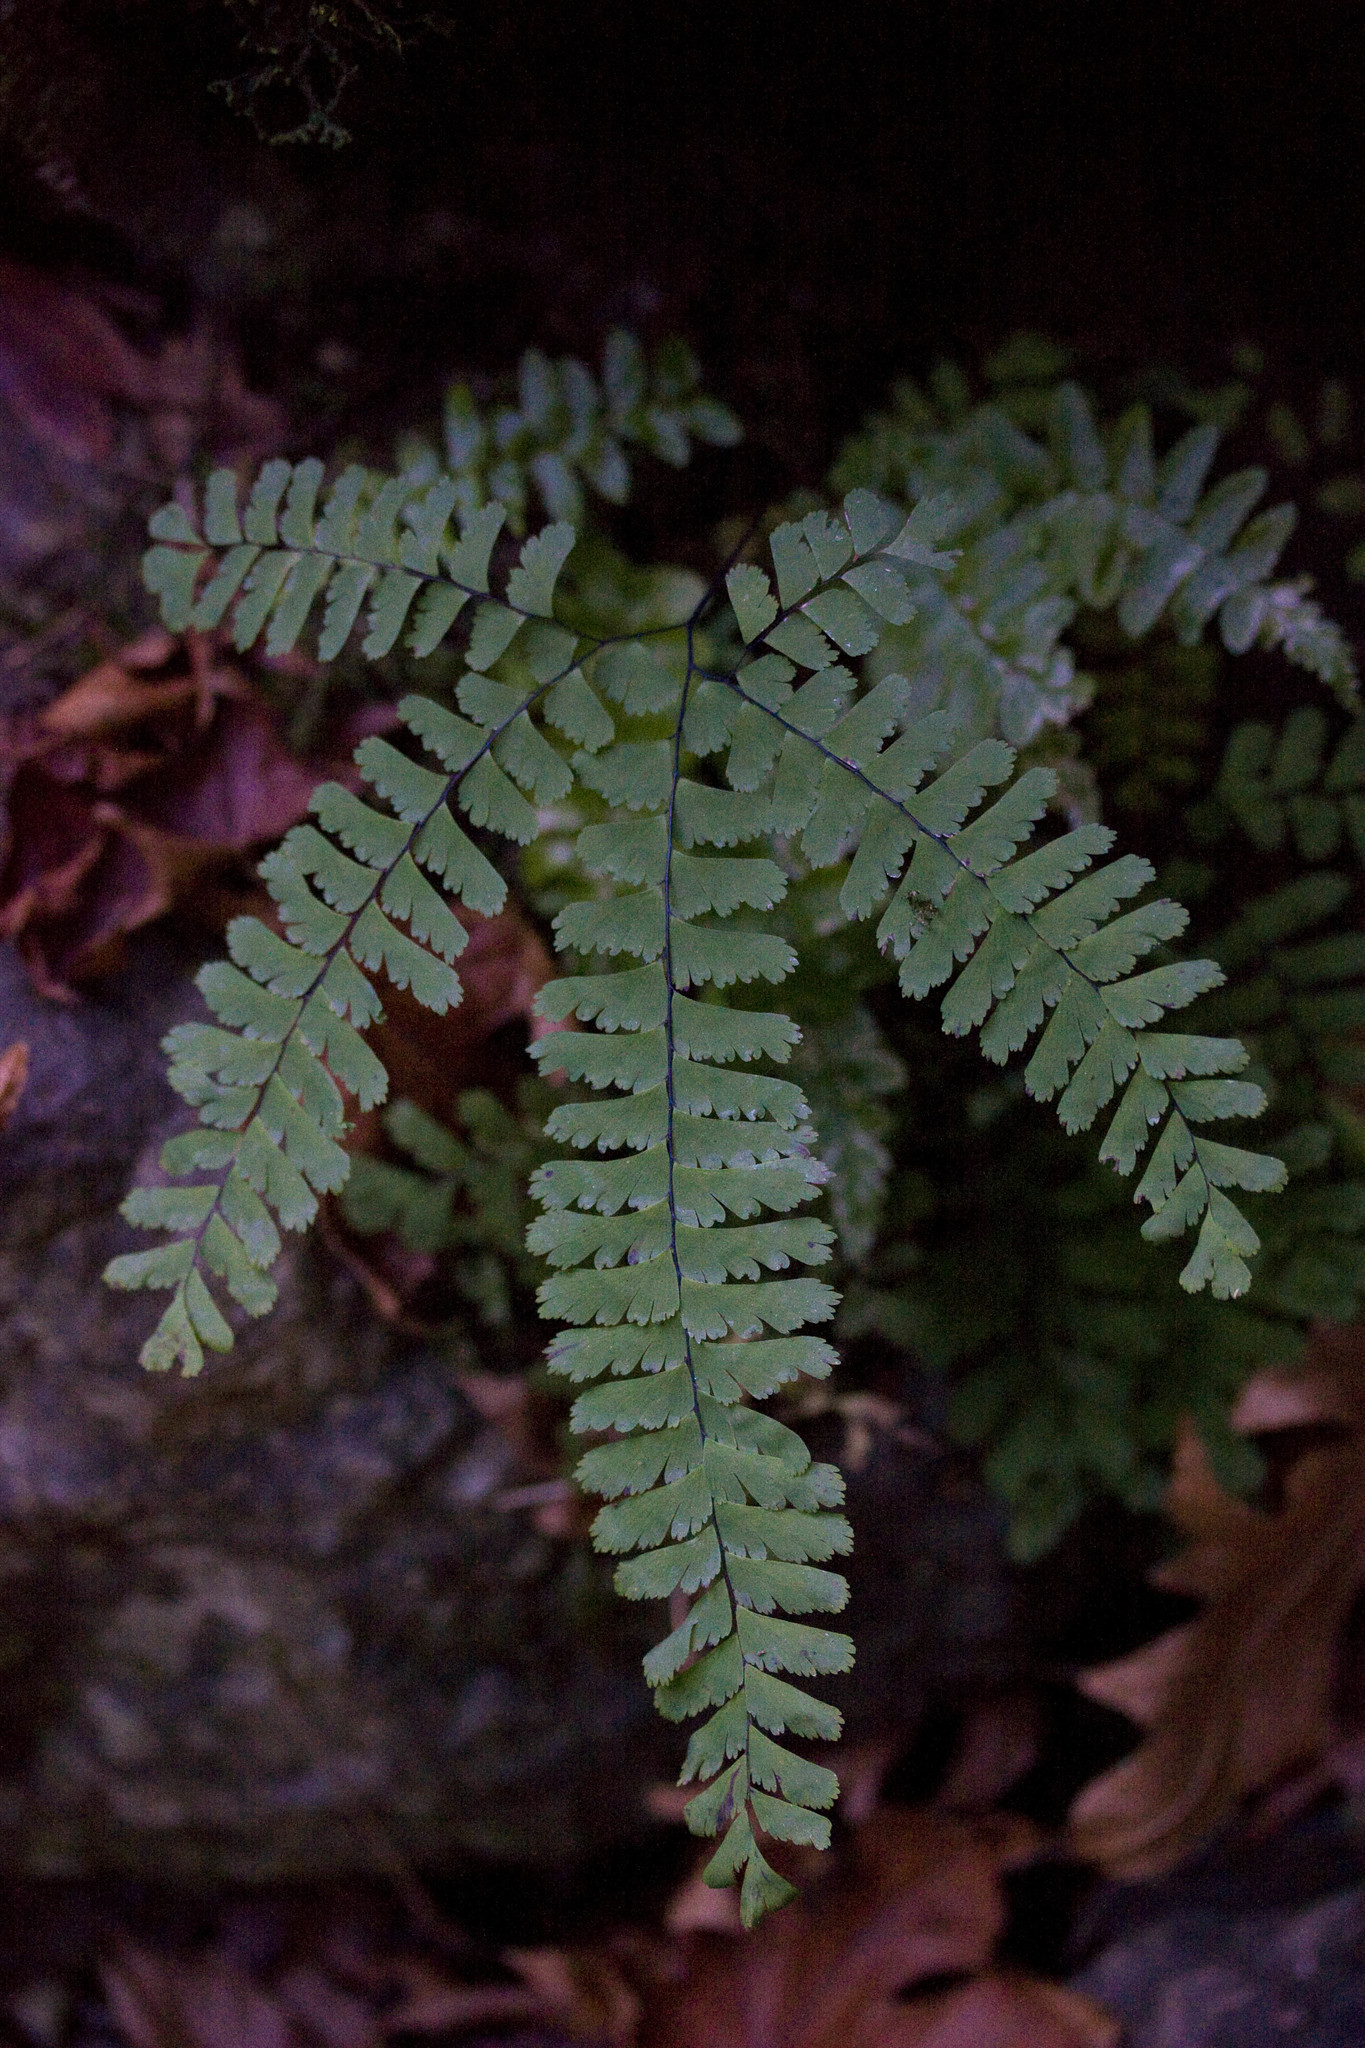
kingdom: Plantae
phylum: Tracheophyta
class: Polypodiopsida
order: Polypodiales
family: Pteridaceae
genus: Adiantum
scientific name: Adiantum aleuticum
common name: Aleutian maidenhair fern
